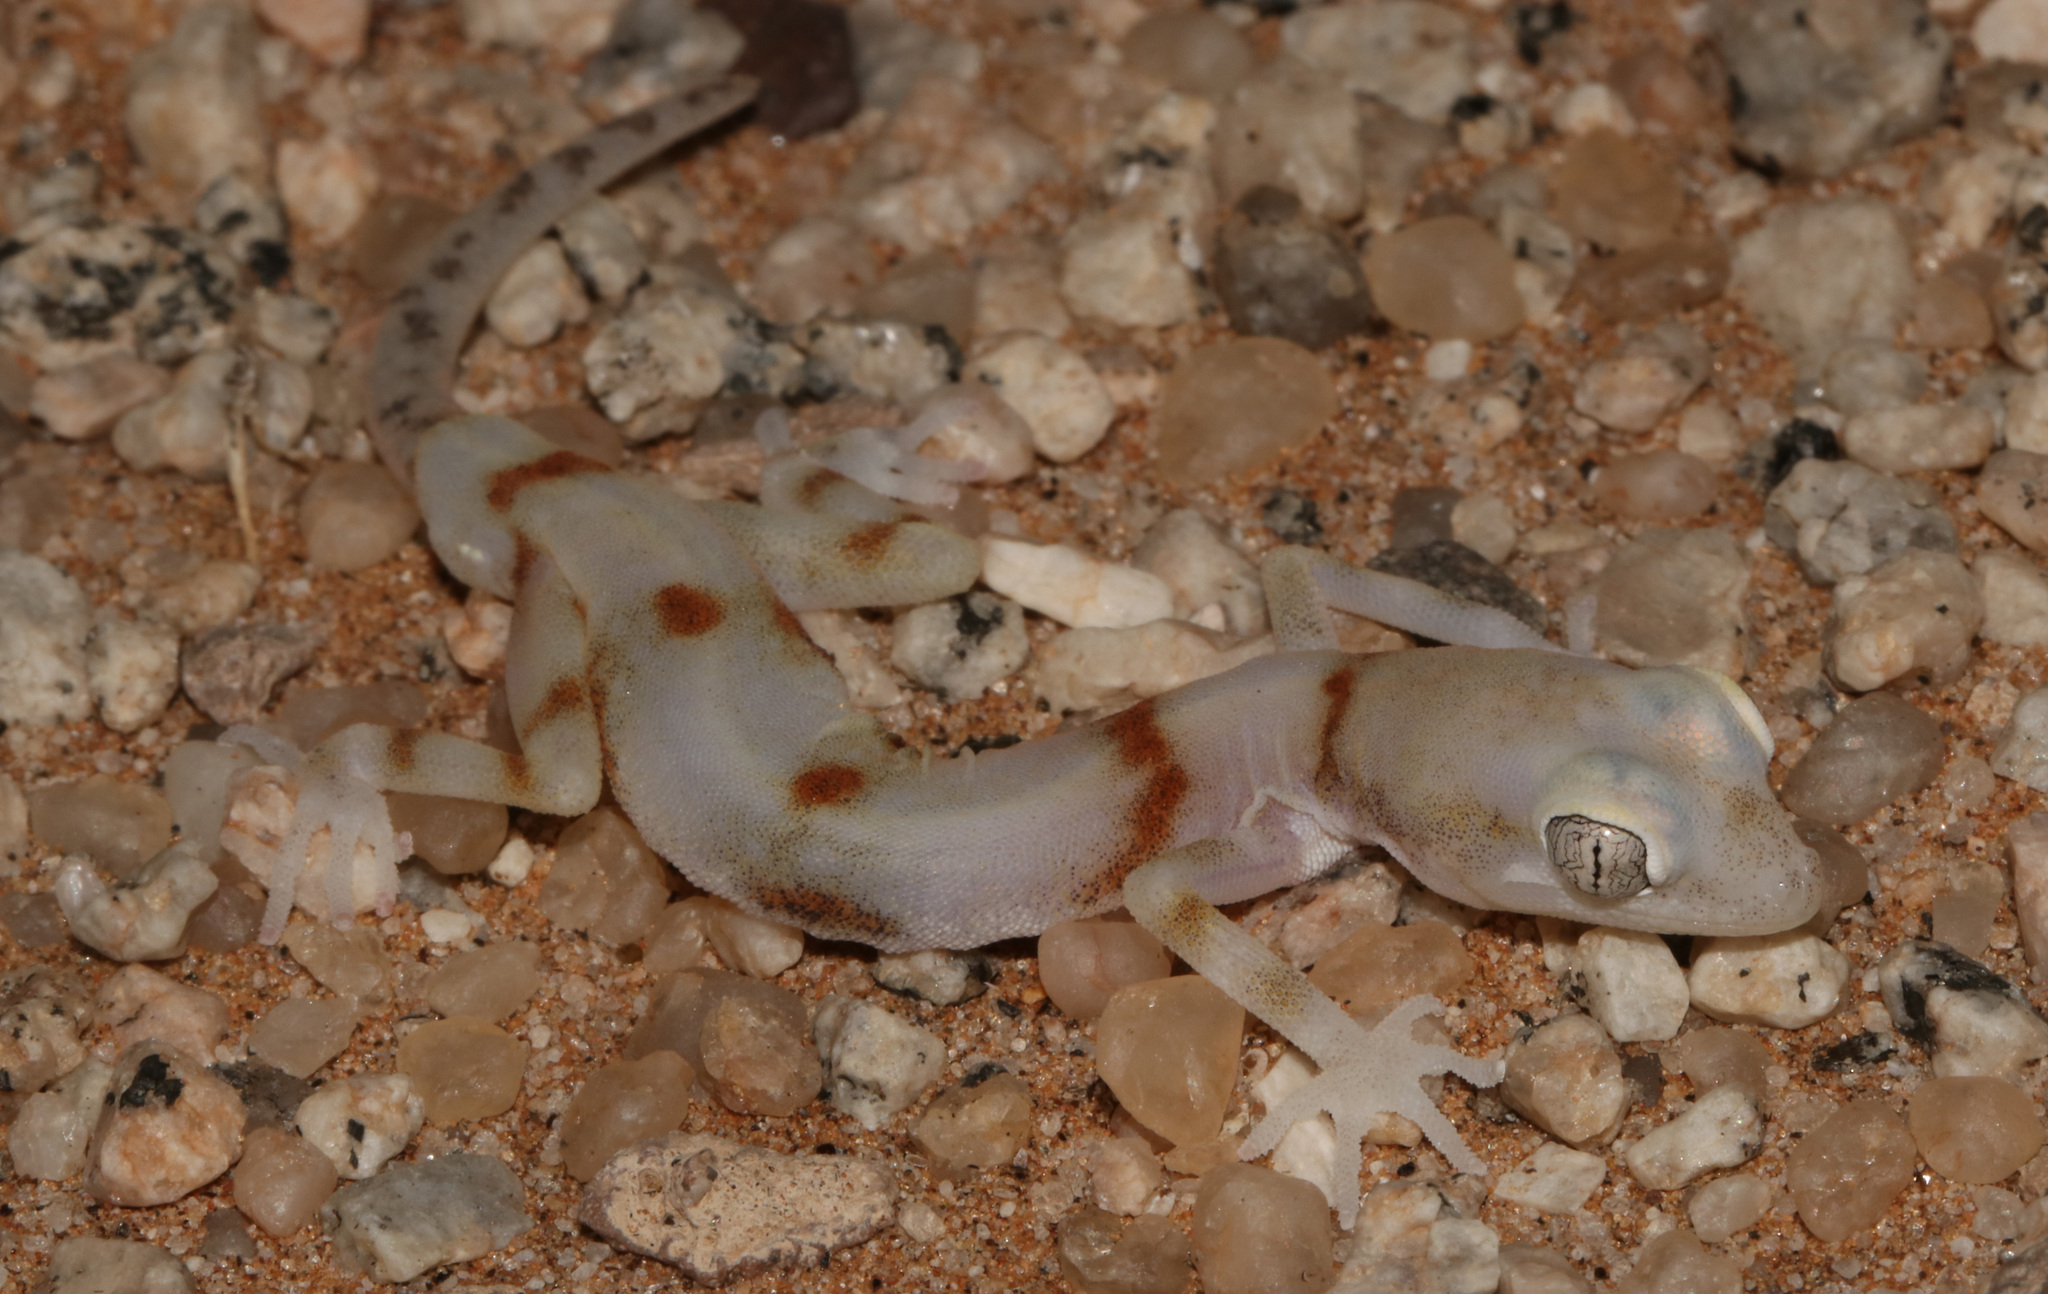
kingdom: Animalia
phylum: Chordata
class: Squamata
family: Gekkonidae
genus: Pachydactylus
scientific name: Pachydactylus kochii
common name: Koch’s gecko
